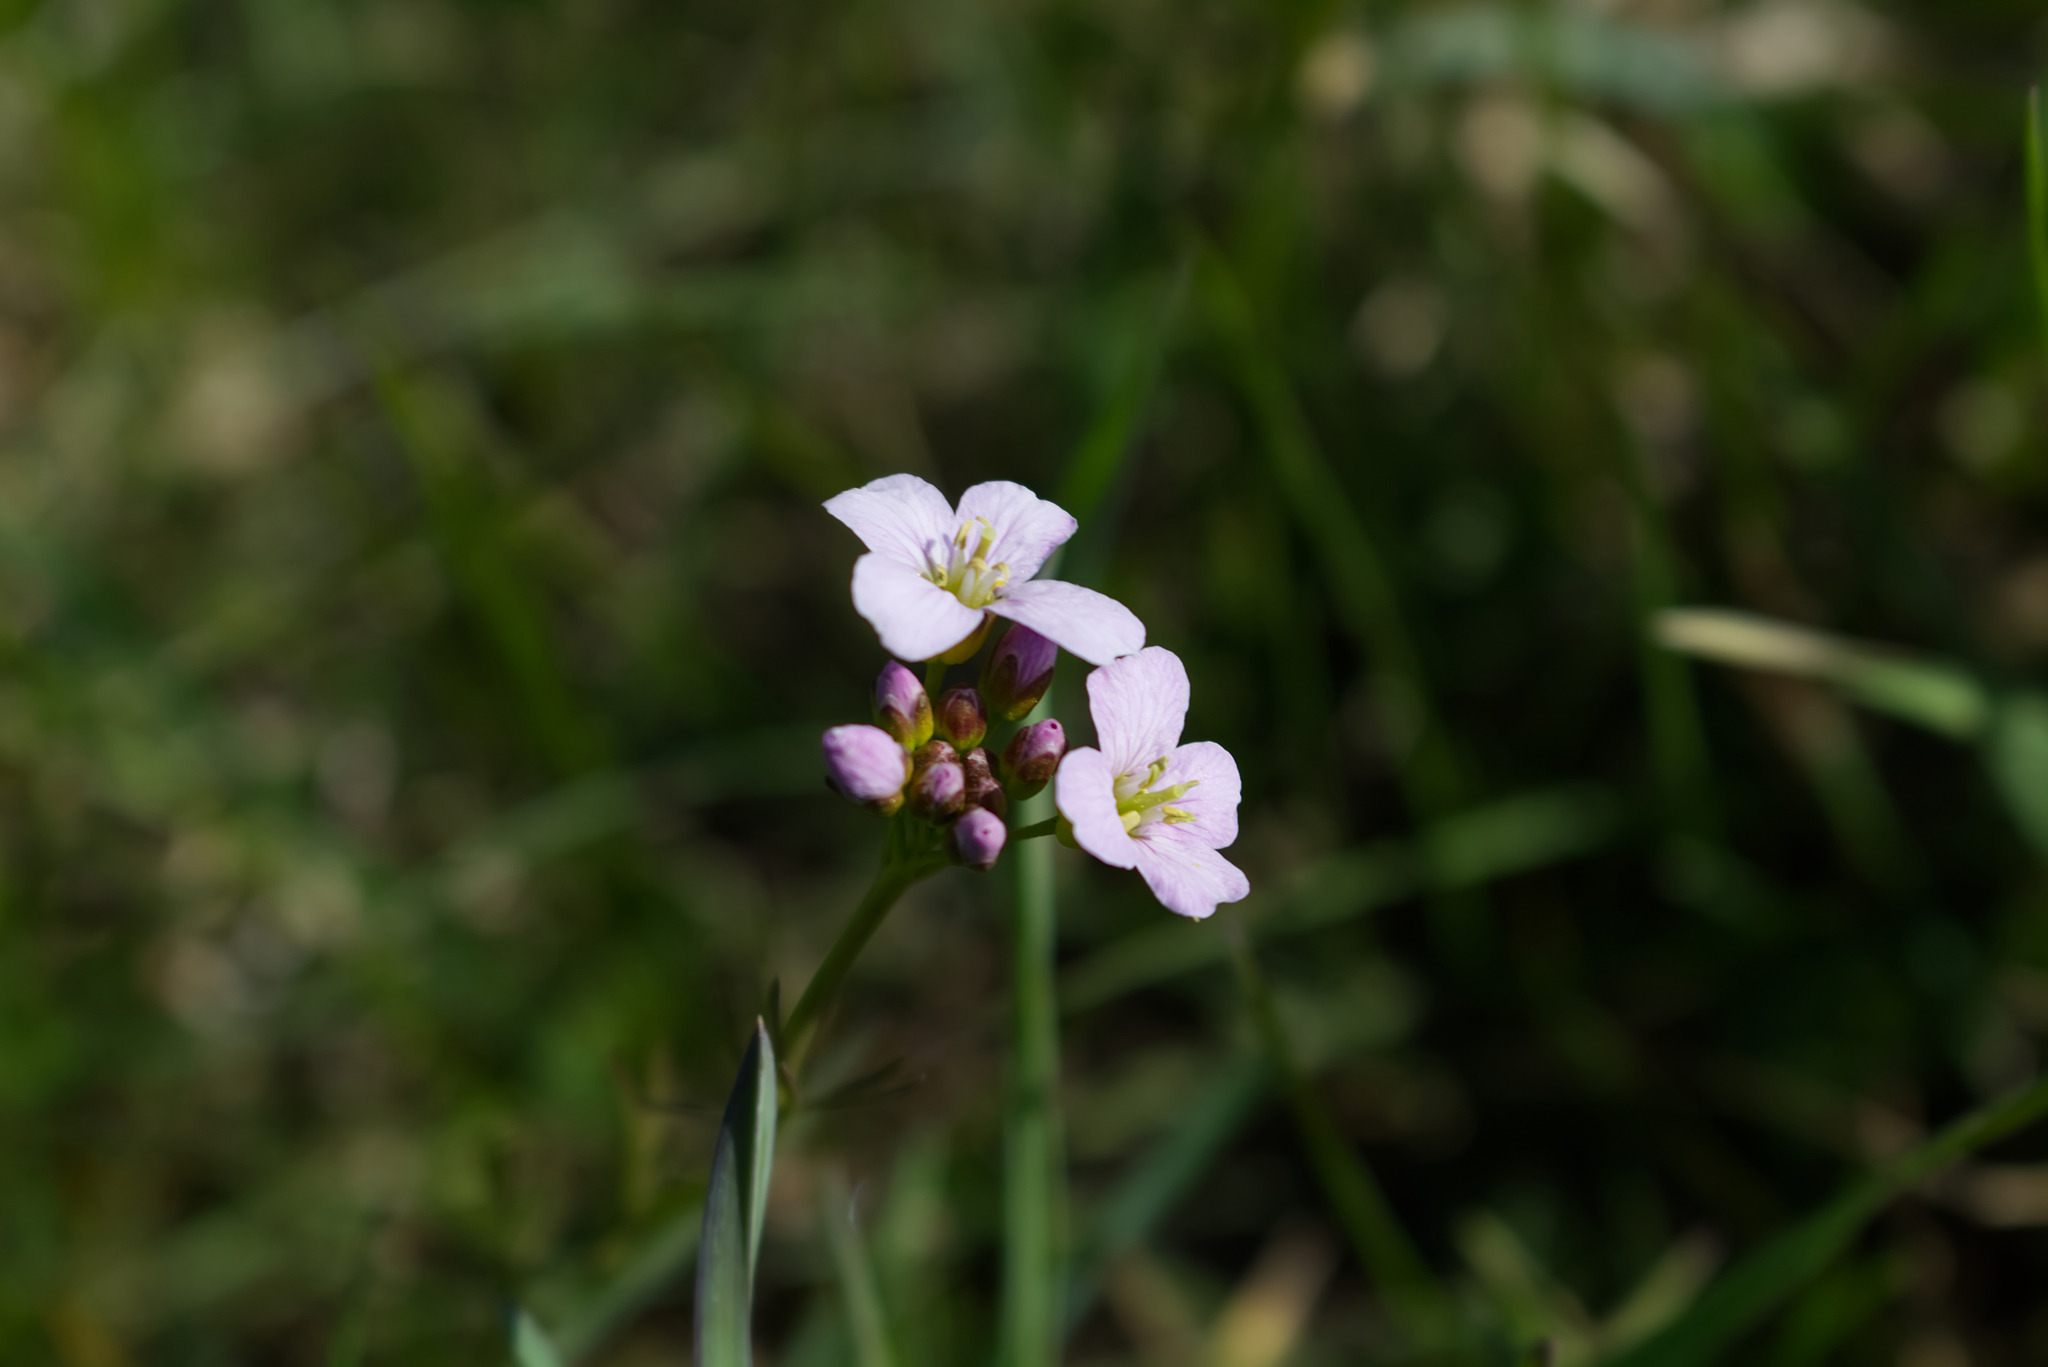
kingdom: Plantae
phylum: Tracheophyta
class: Magnoliopsida
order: Brassicales
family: Brassicaceae
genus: Cardamine
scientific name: Cardamine pratensis
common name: Cuckoo flower
